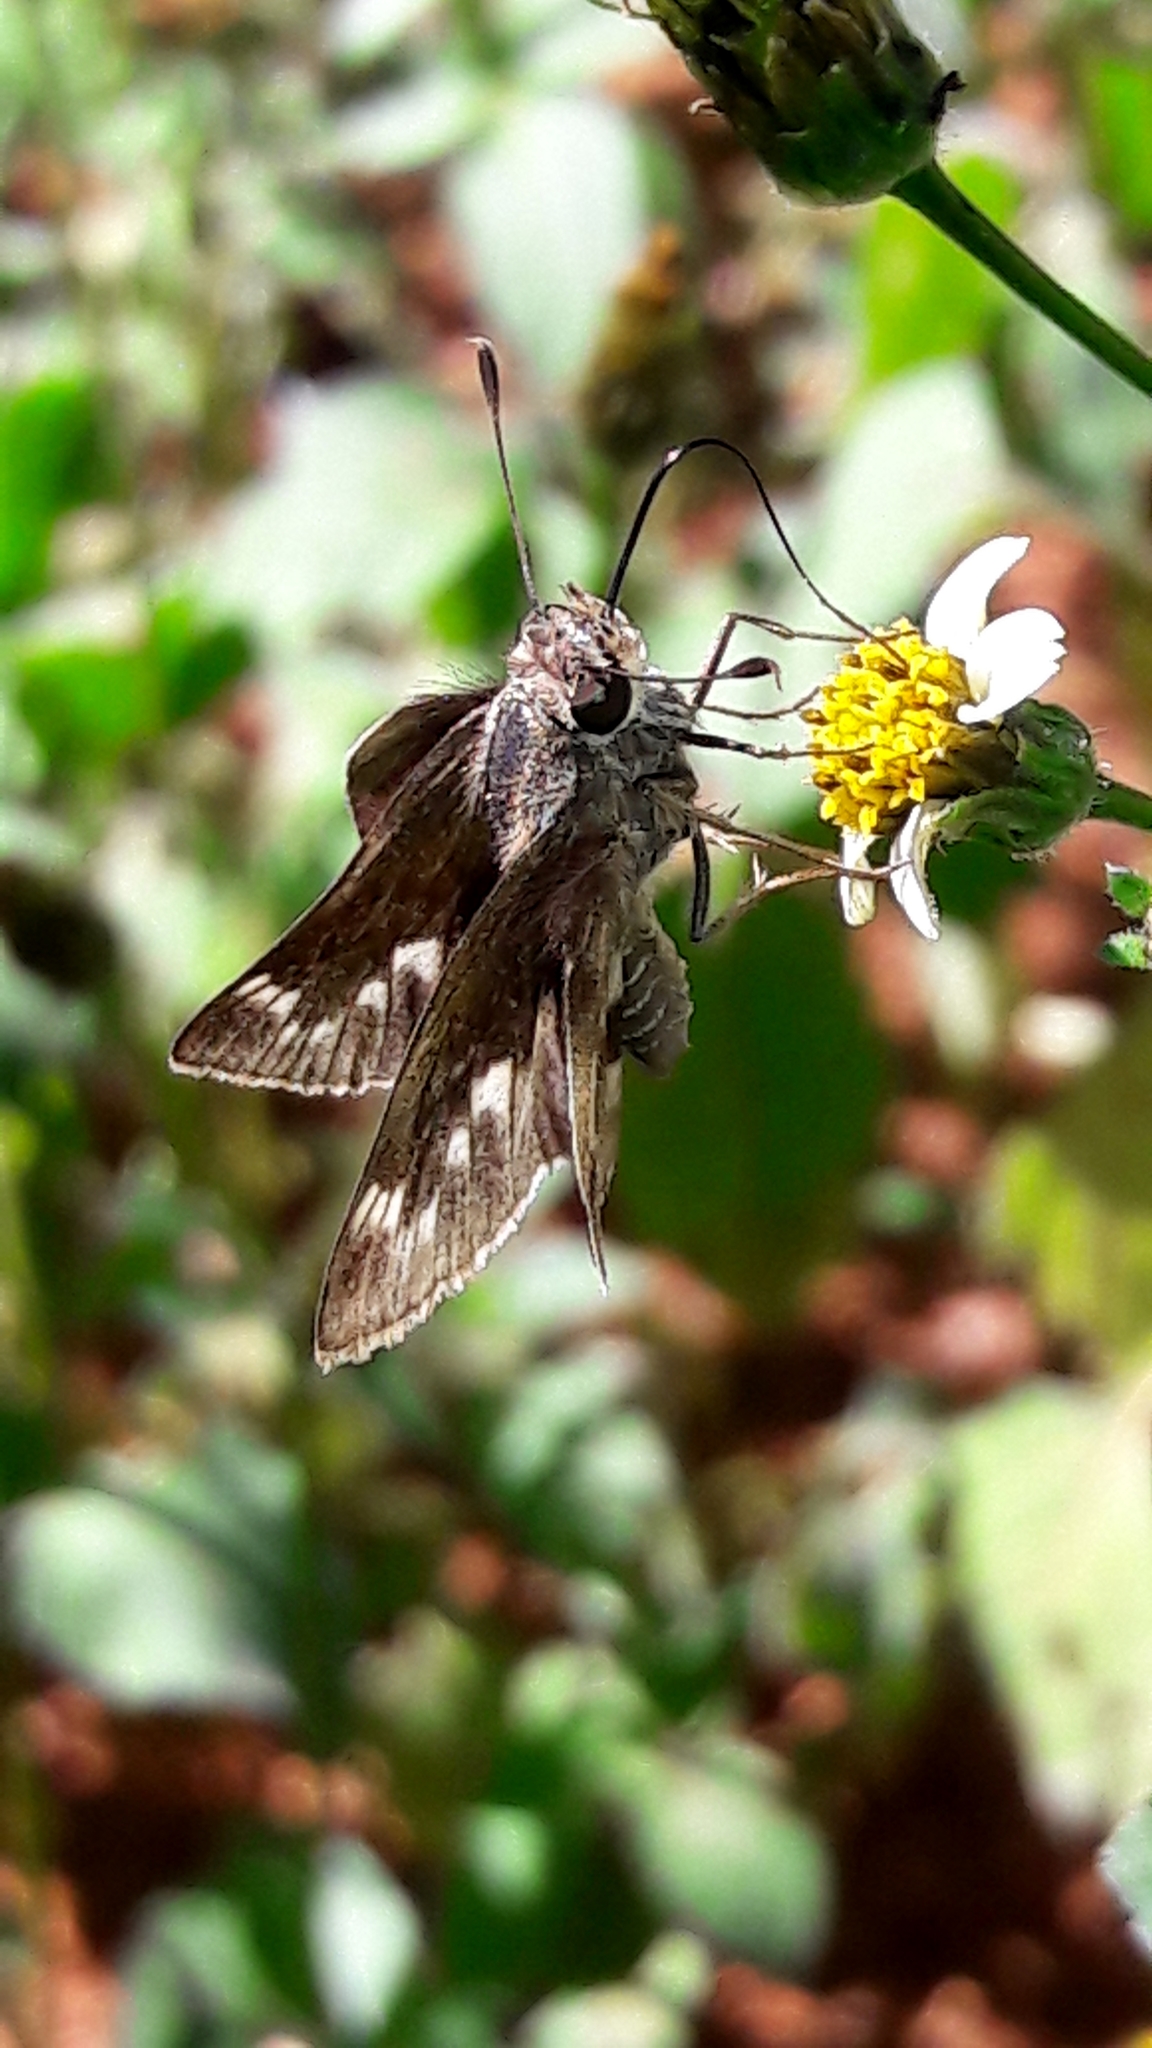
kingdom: Animalia
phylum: Arthropoda
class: Insecta
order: Lepidoptera
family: Hesperiidae
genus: Pompeius
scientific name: Pompeius pompeius
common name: Pompeius skipper
